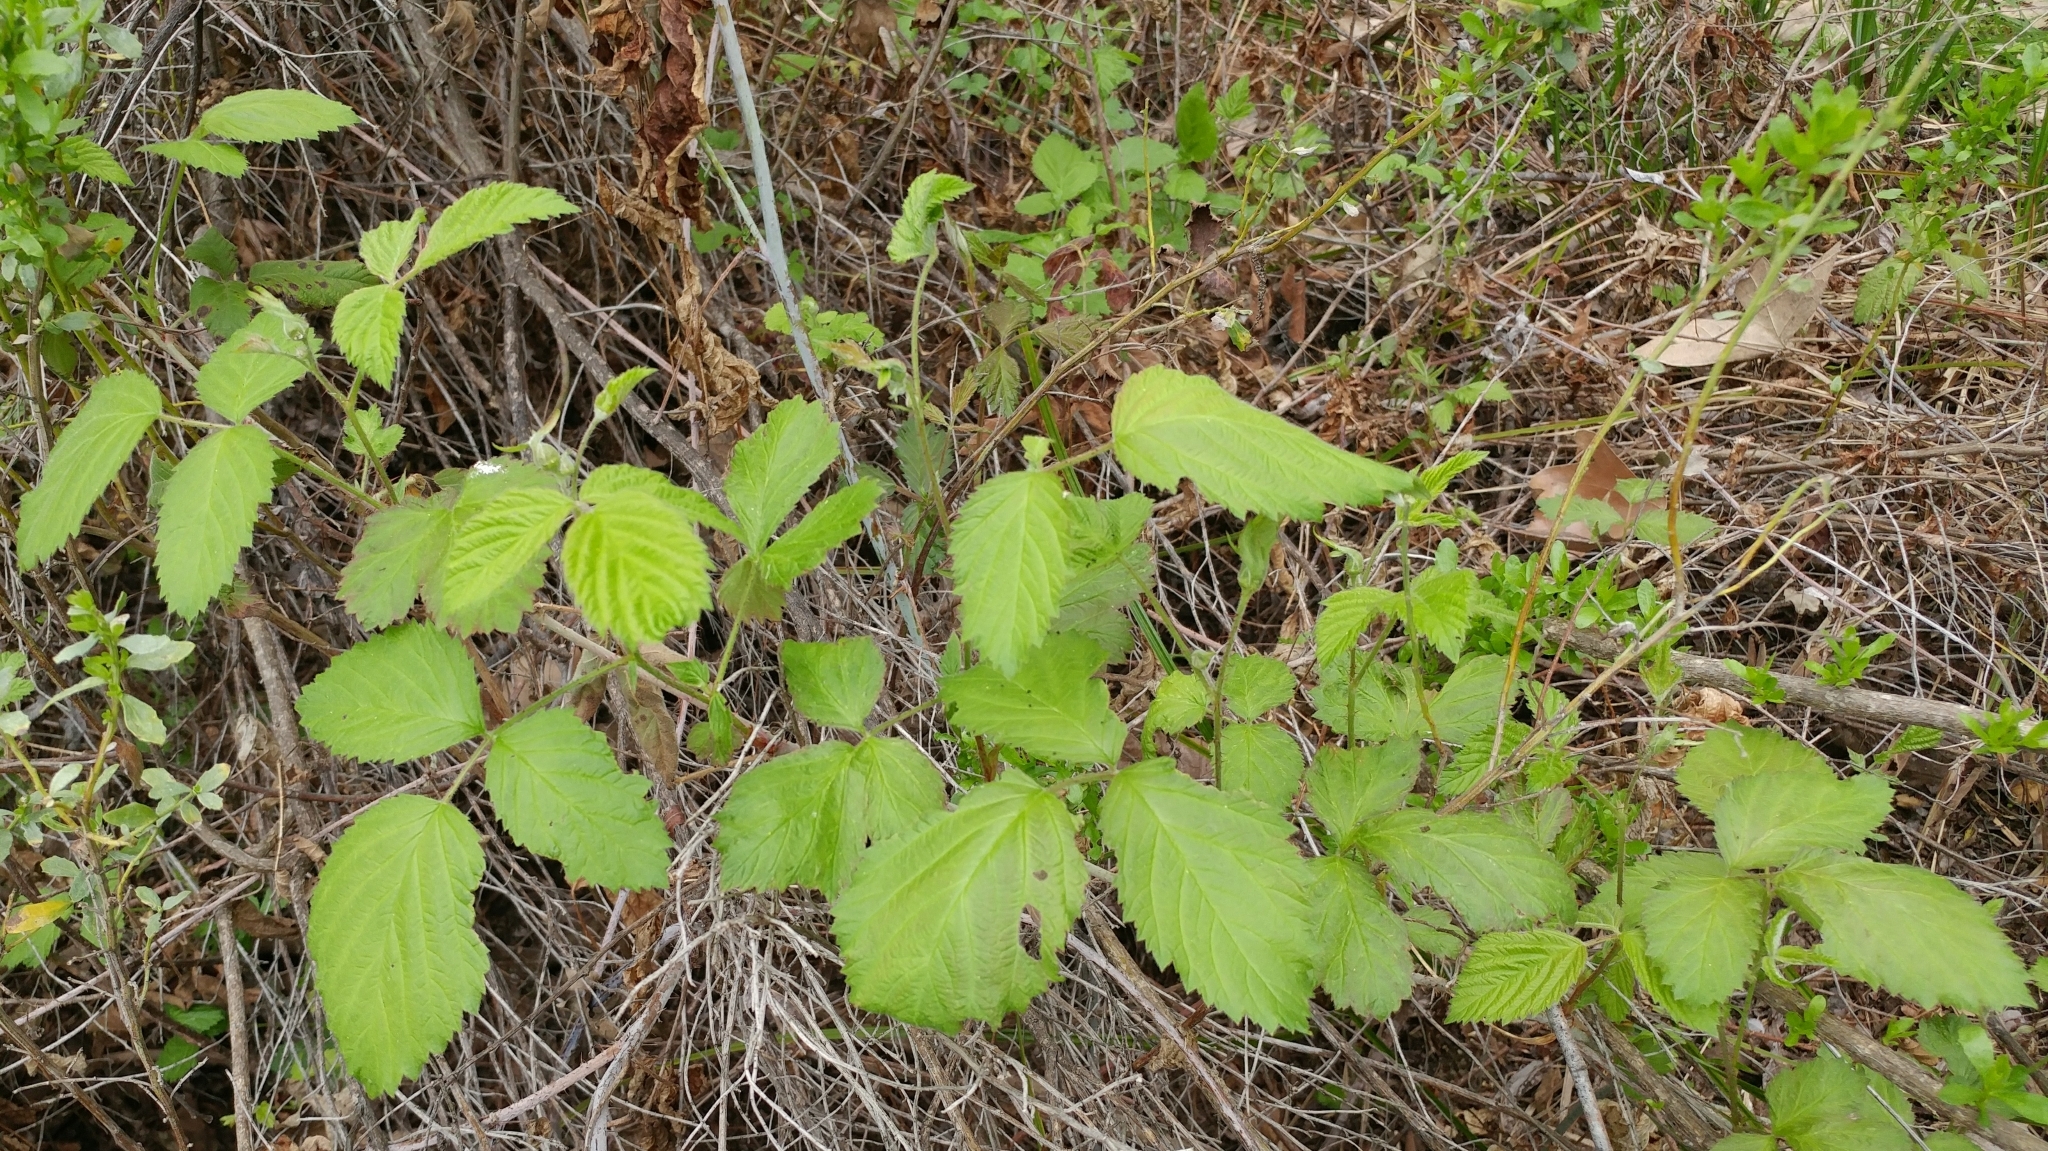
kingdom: Plantae
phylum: Tracheophyta
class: Magnoliopsida
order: Rosales
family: Rosaceae
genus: Rubus
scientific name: Rubus ursinus
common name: Pacific blackberry
